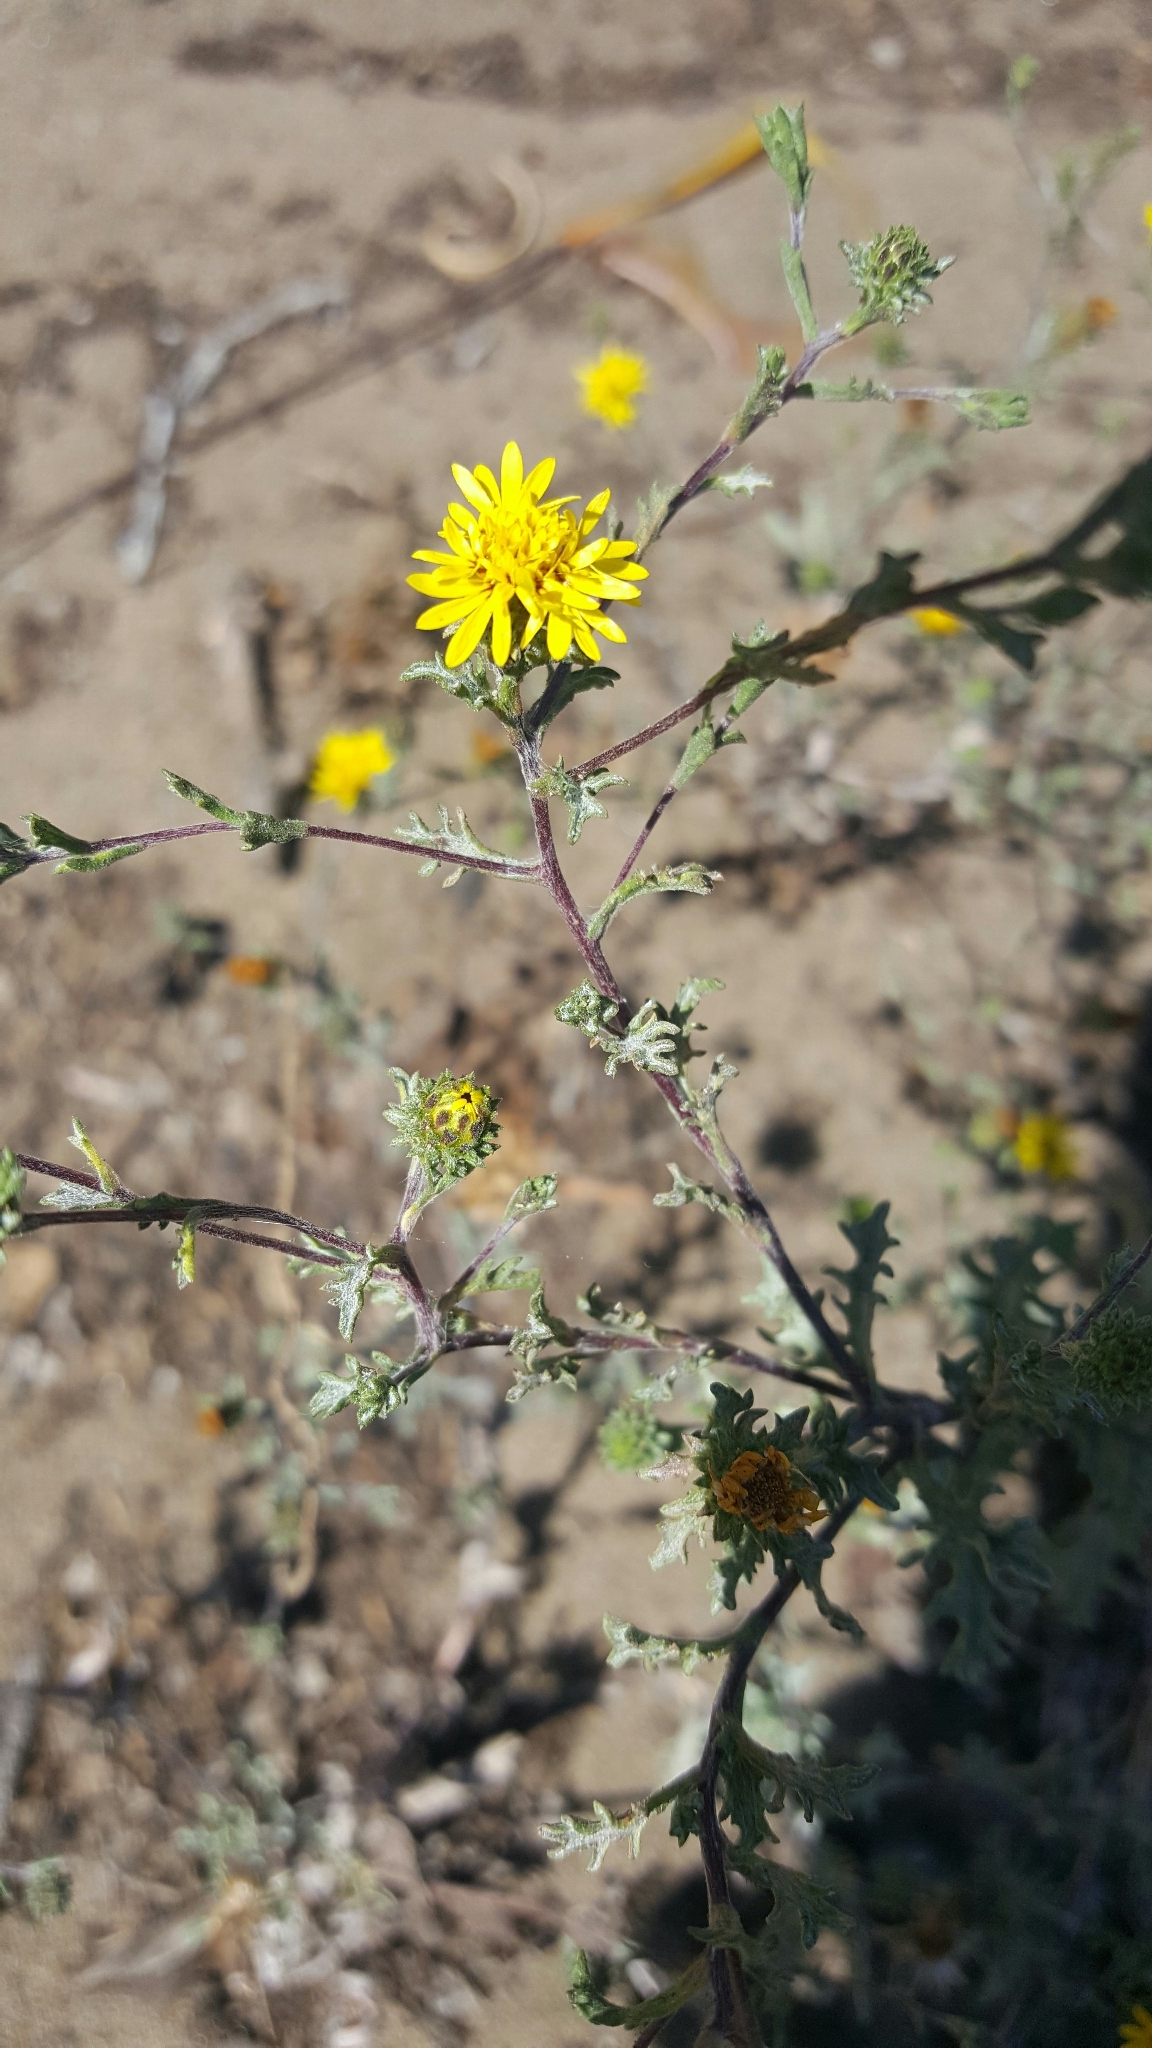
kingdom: Plantae
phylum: Tracheophyta
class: Magnoliopsida
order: Asterales
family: Asteraceae
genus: Lessingia
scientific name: Lessingia germanorum
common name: San francisco lessingia
